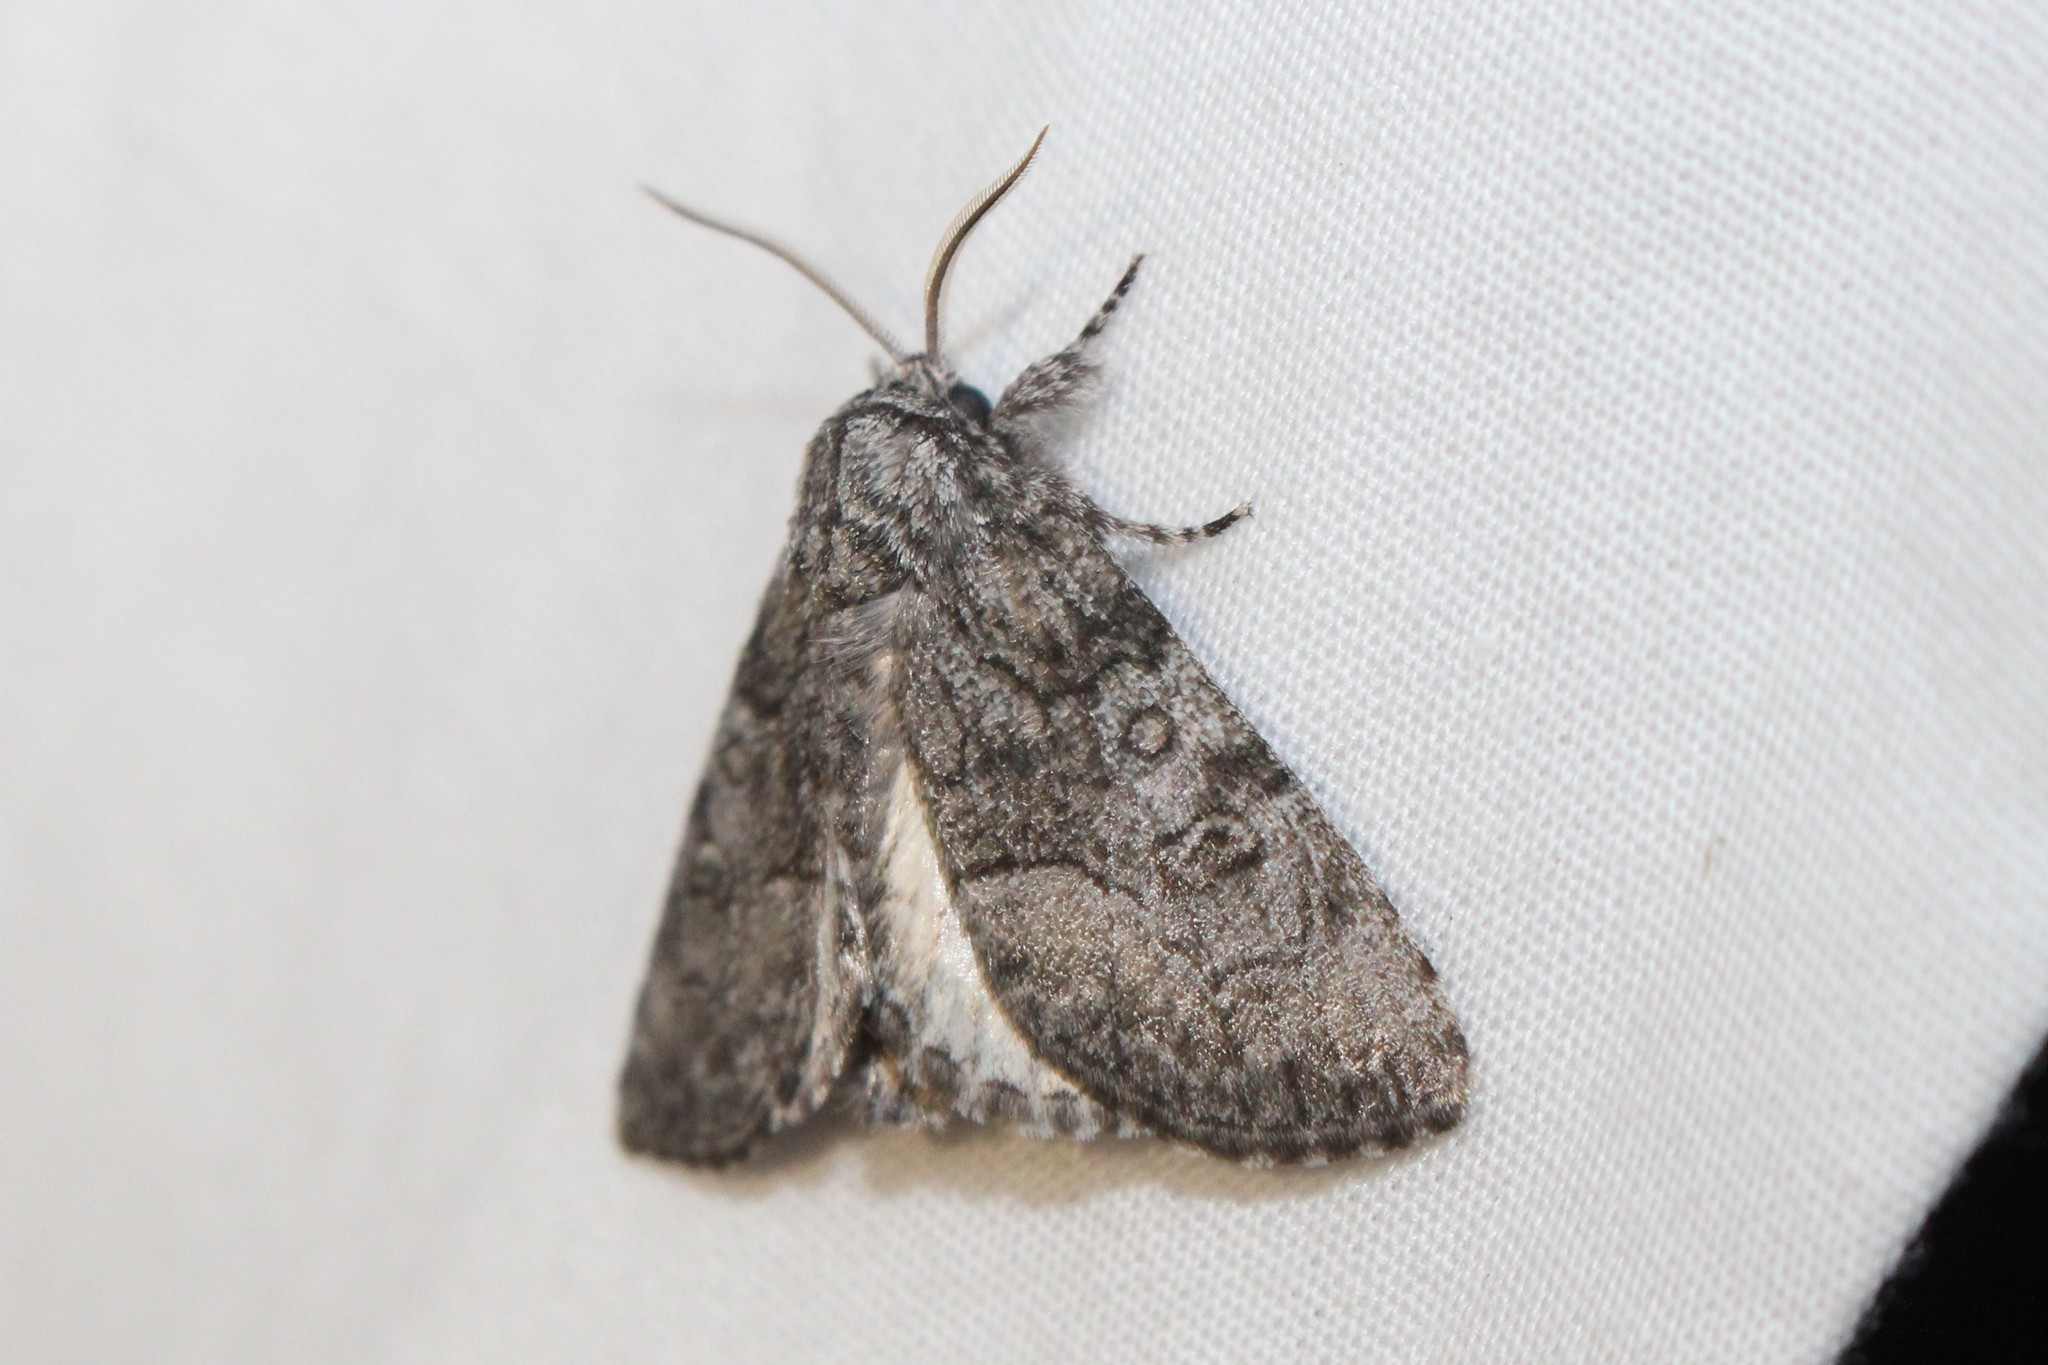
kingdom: Animalia
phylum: Arthropoda
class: Insecta
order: Lepidoptera
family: Noctuidae
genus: Raphia
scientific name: Raphia frater
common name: Brother
